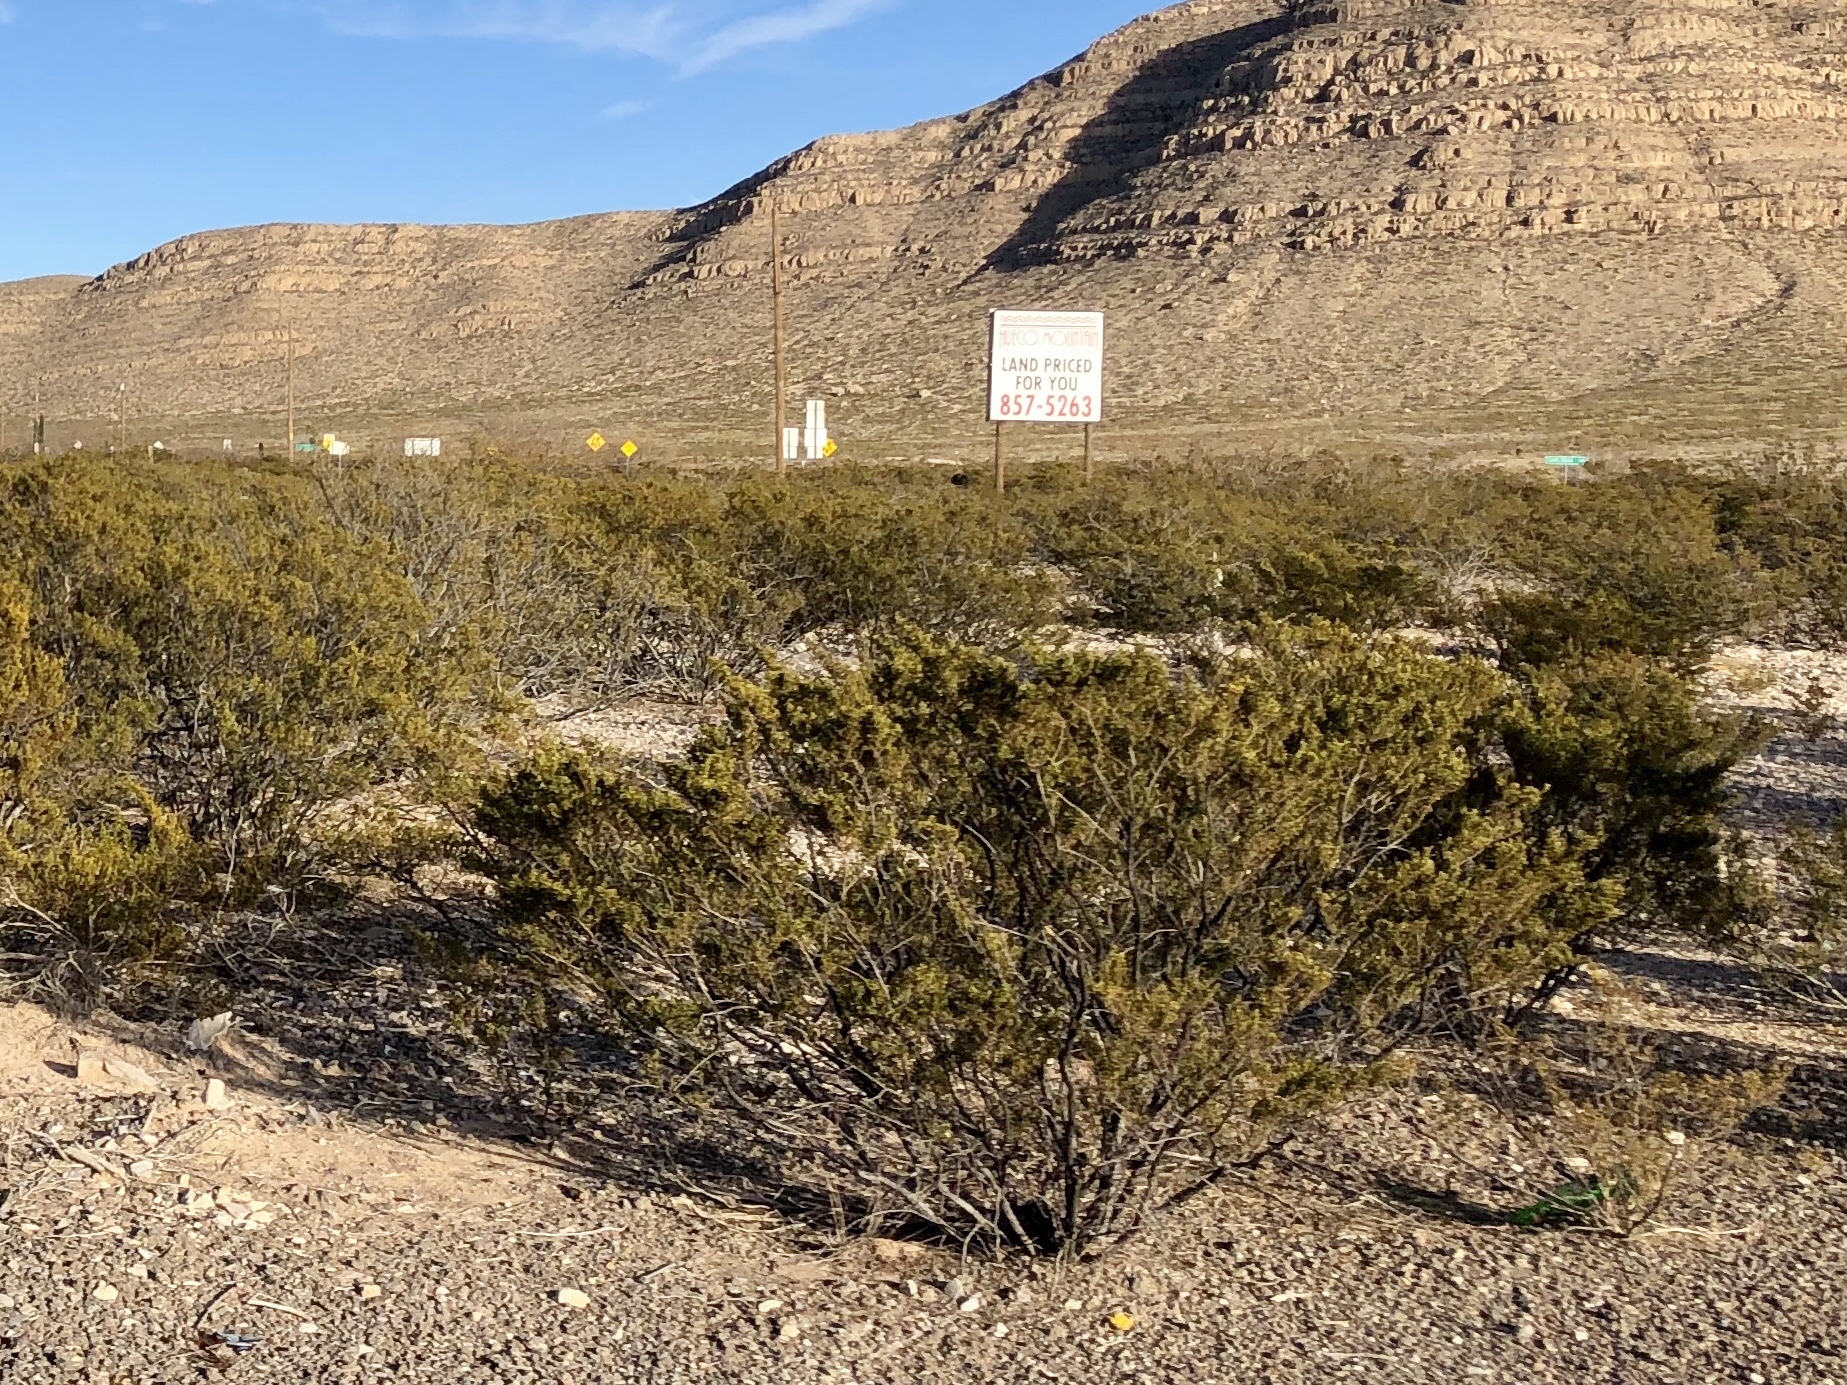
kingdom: Plantae
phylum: Tracheophyta
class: Magnoliopsida
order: Zygophyllales
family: Zygophyllaceae
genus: Larrea
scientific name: Larrea tridentata
